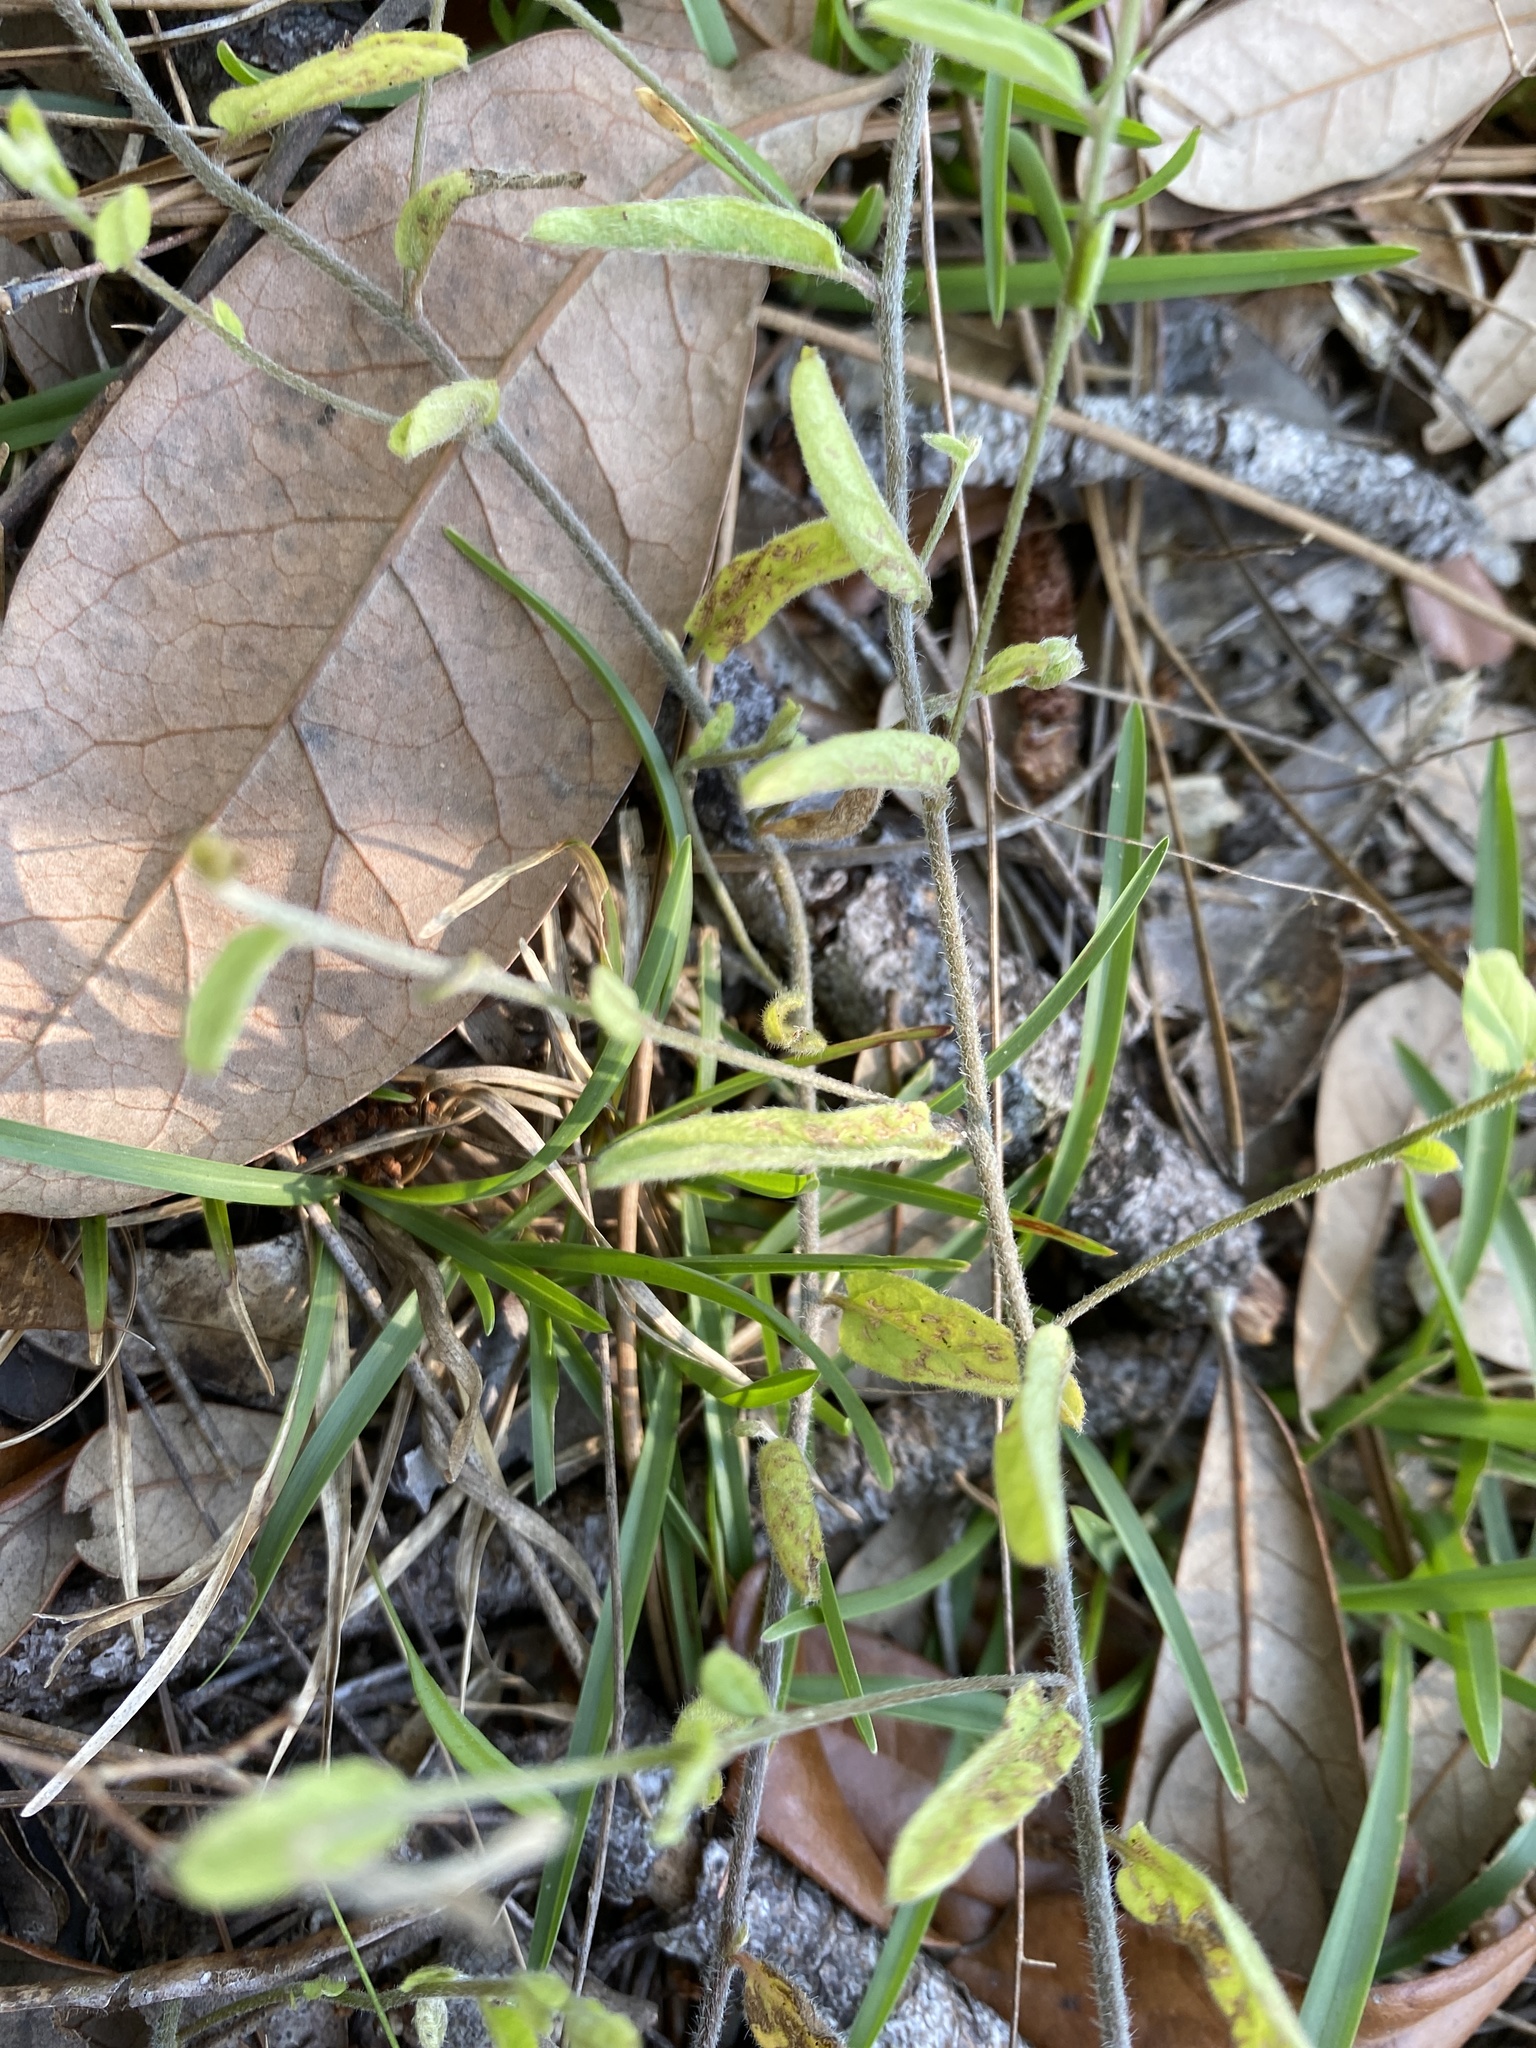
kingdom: Plantae
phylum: Tracheophyta
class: Magnoliopsida
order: Solanales
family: Convolvulaceae
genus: Stylisma
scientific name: Stylisma patens
